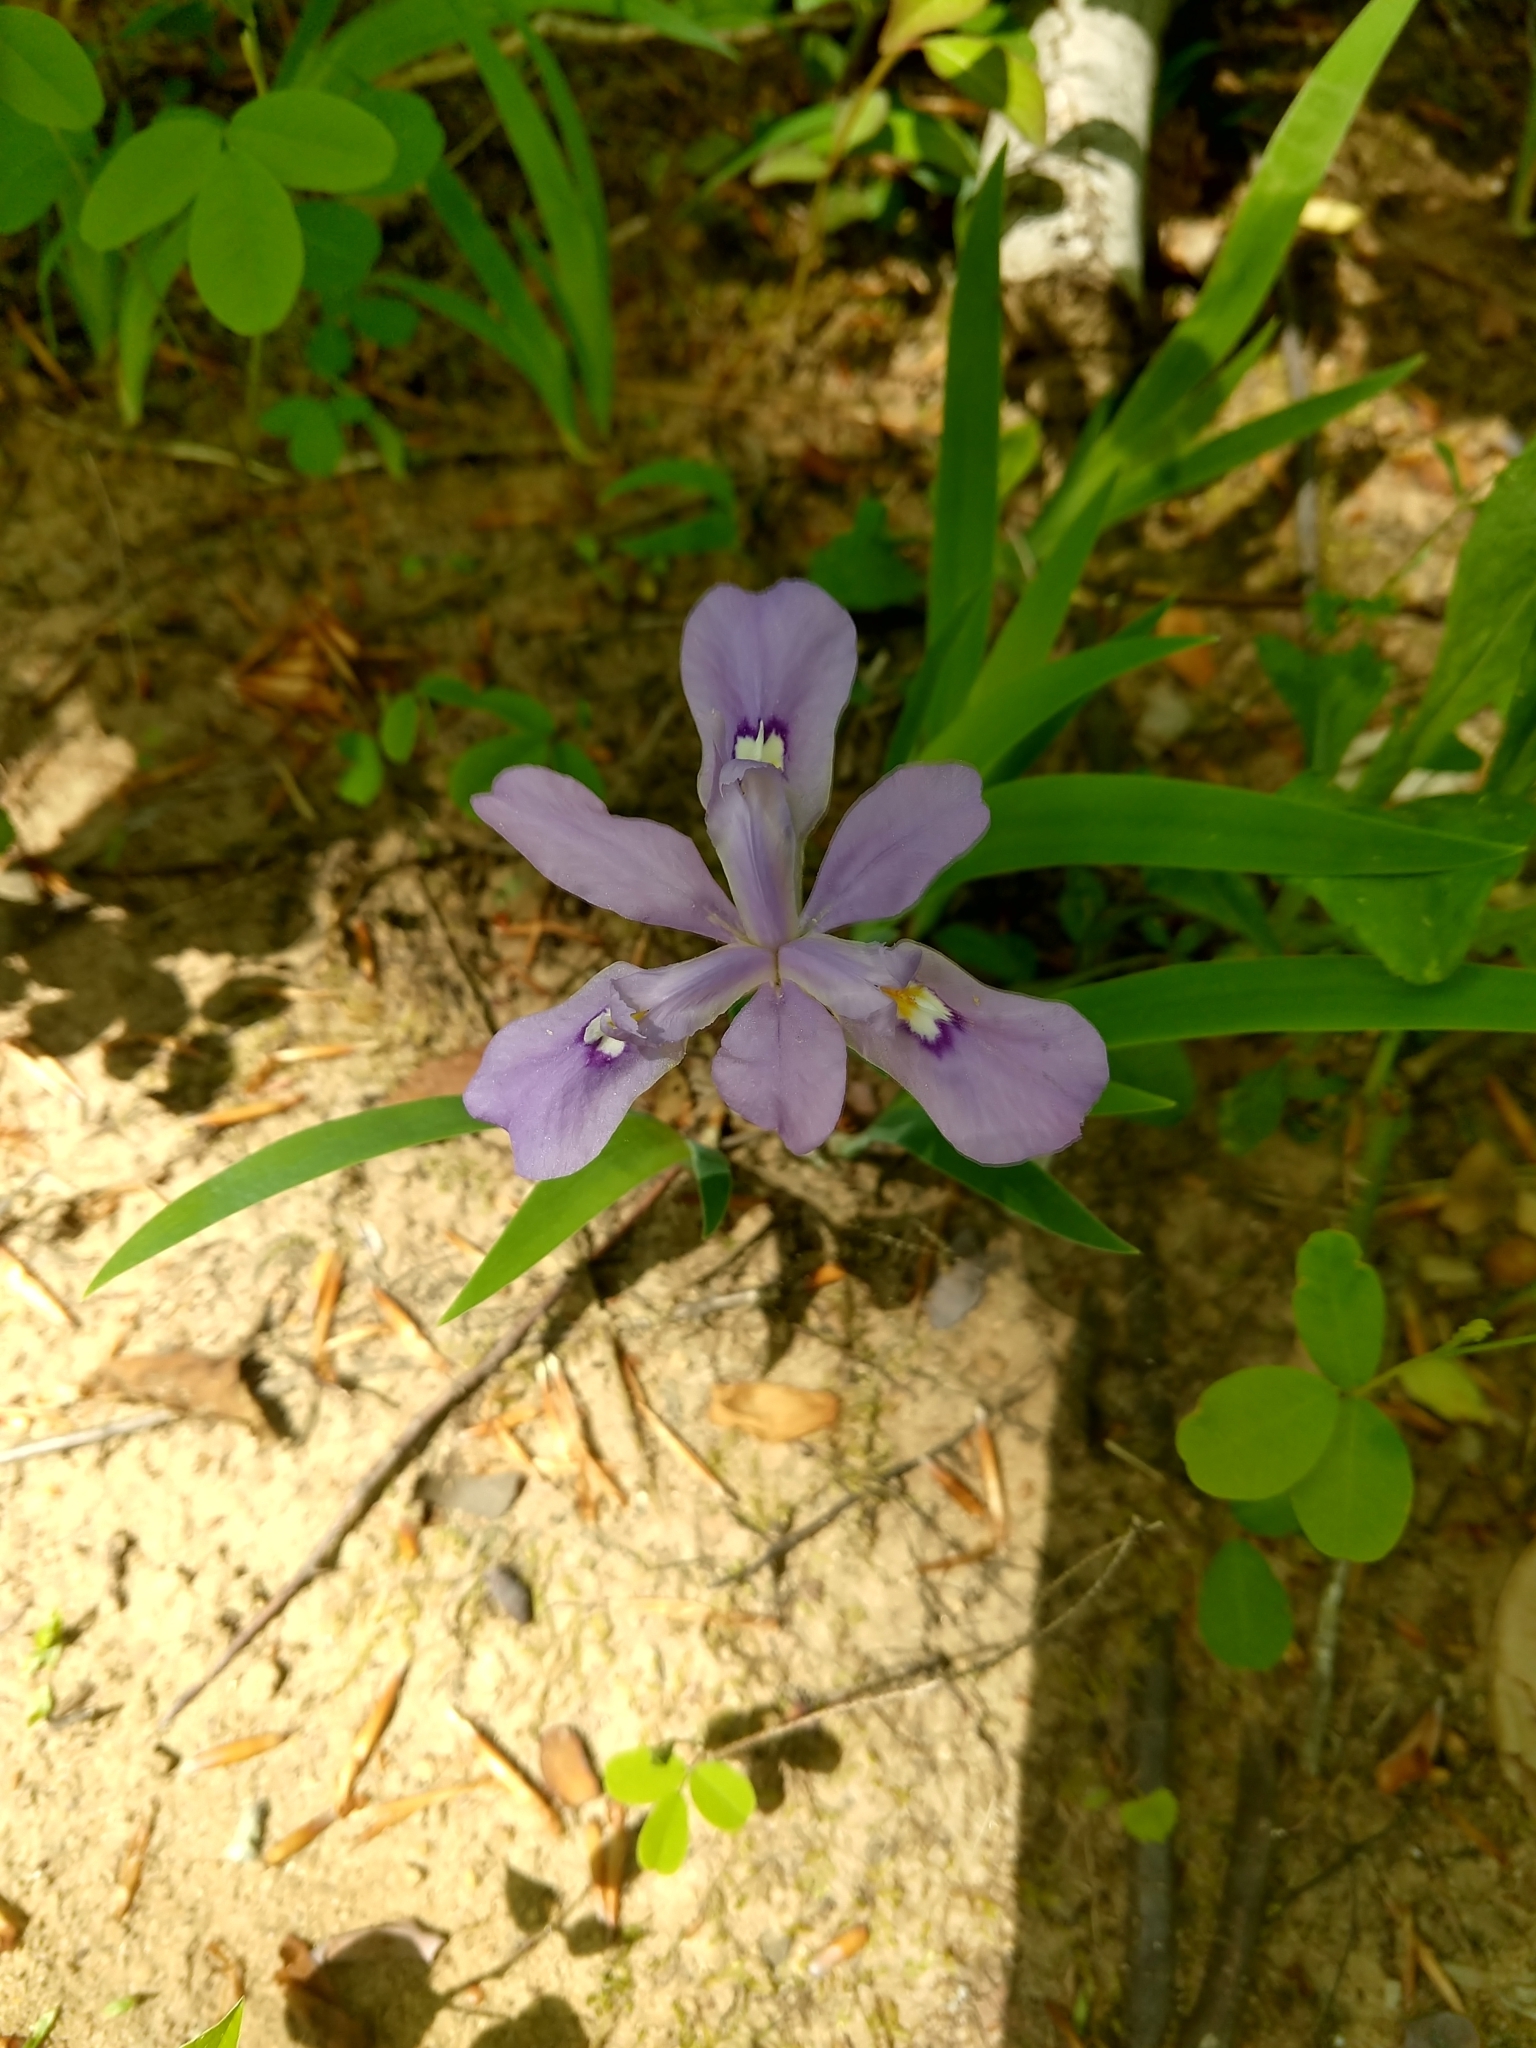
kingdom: Plantae
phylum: Tracheophyta
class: Liliopsida
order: Asparagales
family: Iridaceae
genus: Iris
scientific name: Iris cristata
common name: Crested iris
